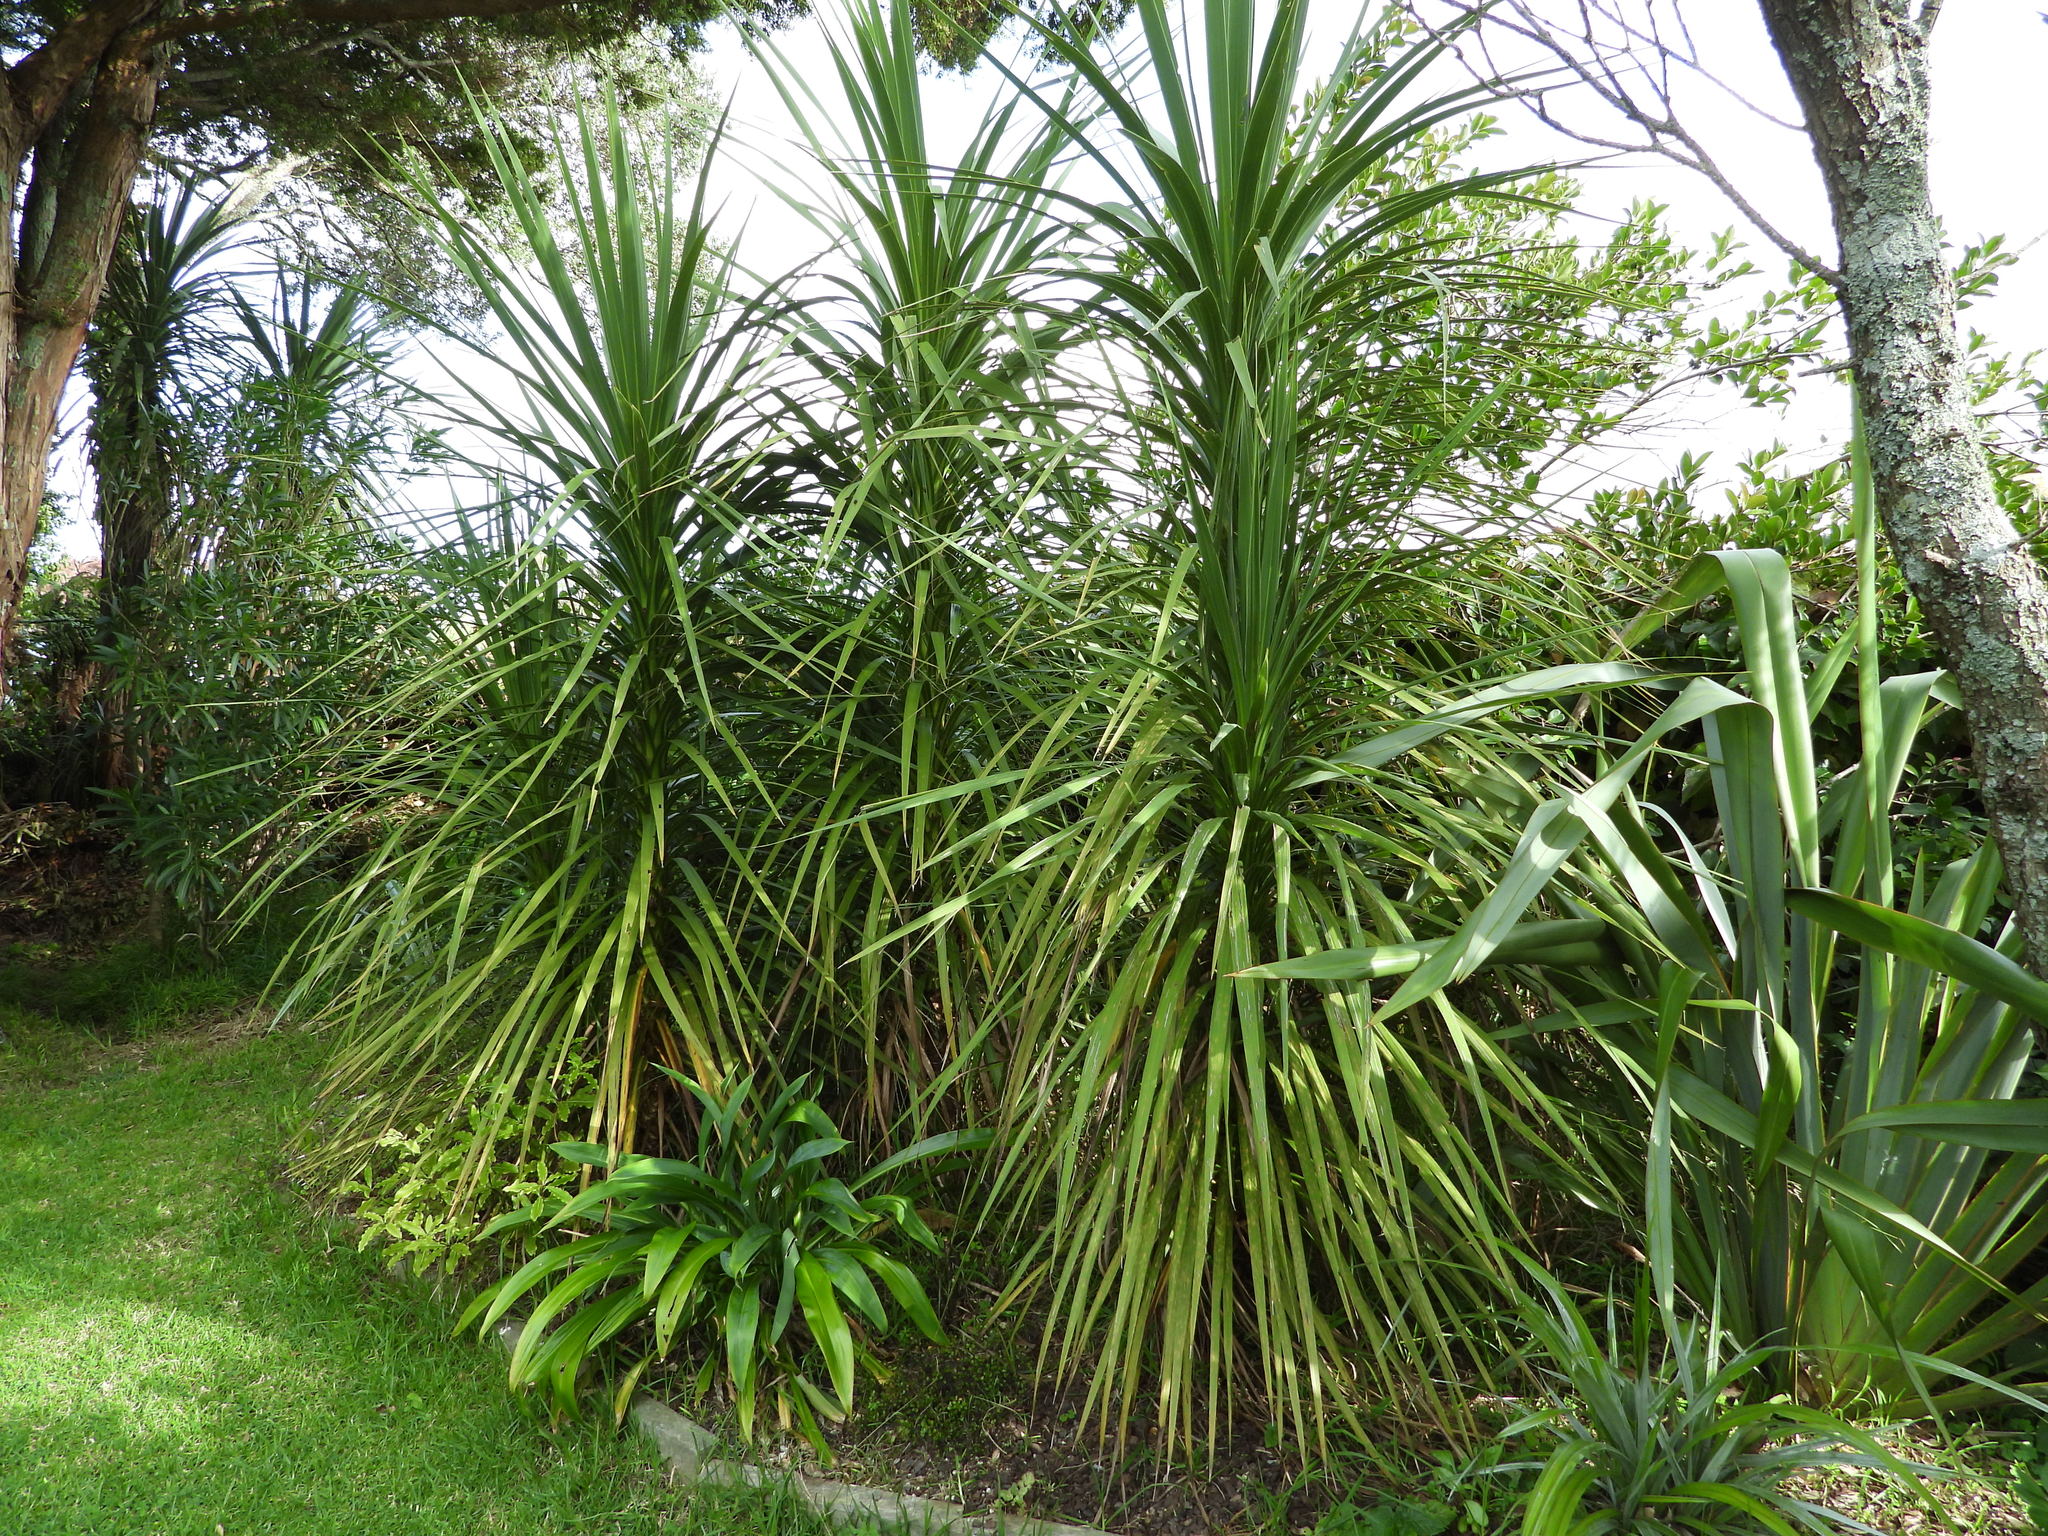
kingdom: Plantae
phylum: Tracheophyta
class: Liliopsida
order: Asparagales
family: Asparagaceae
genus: Cordyline
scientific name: Cordyline australis
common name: Cabbage-palm
